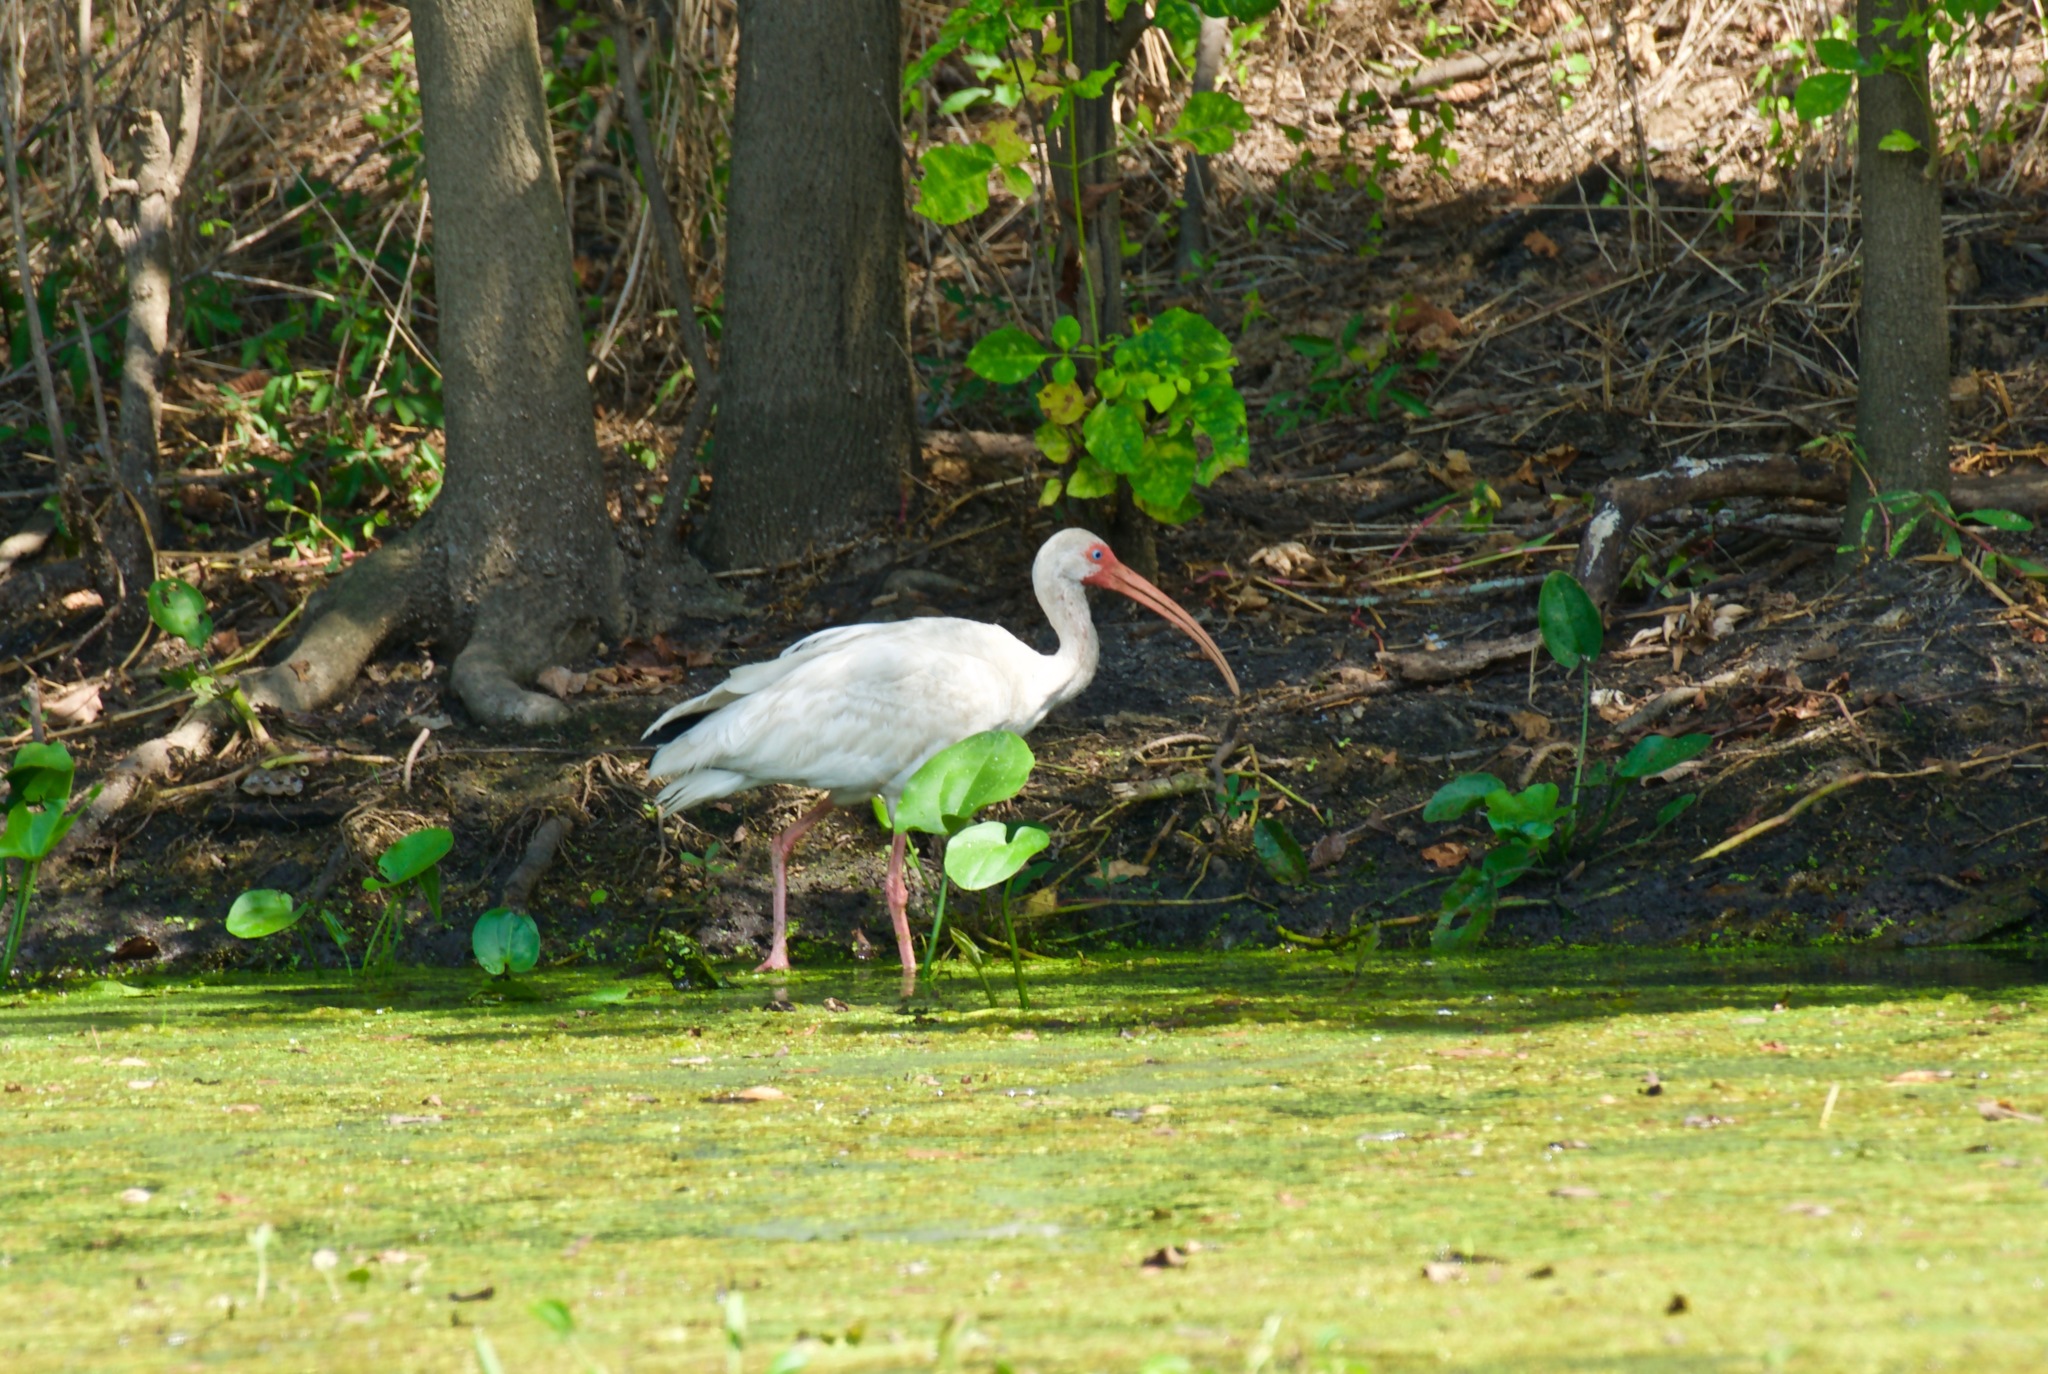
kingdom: Animalia
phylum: Chordata
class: Aves
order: Pelecaniformes
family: Threskiornithidae
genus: Eudocimus
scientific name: Eudocimus albus
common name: White ibis
